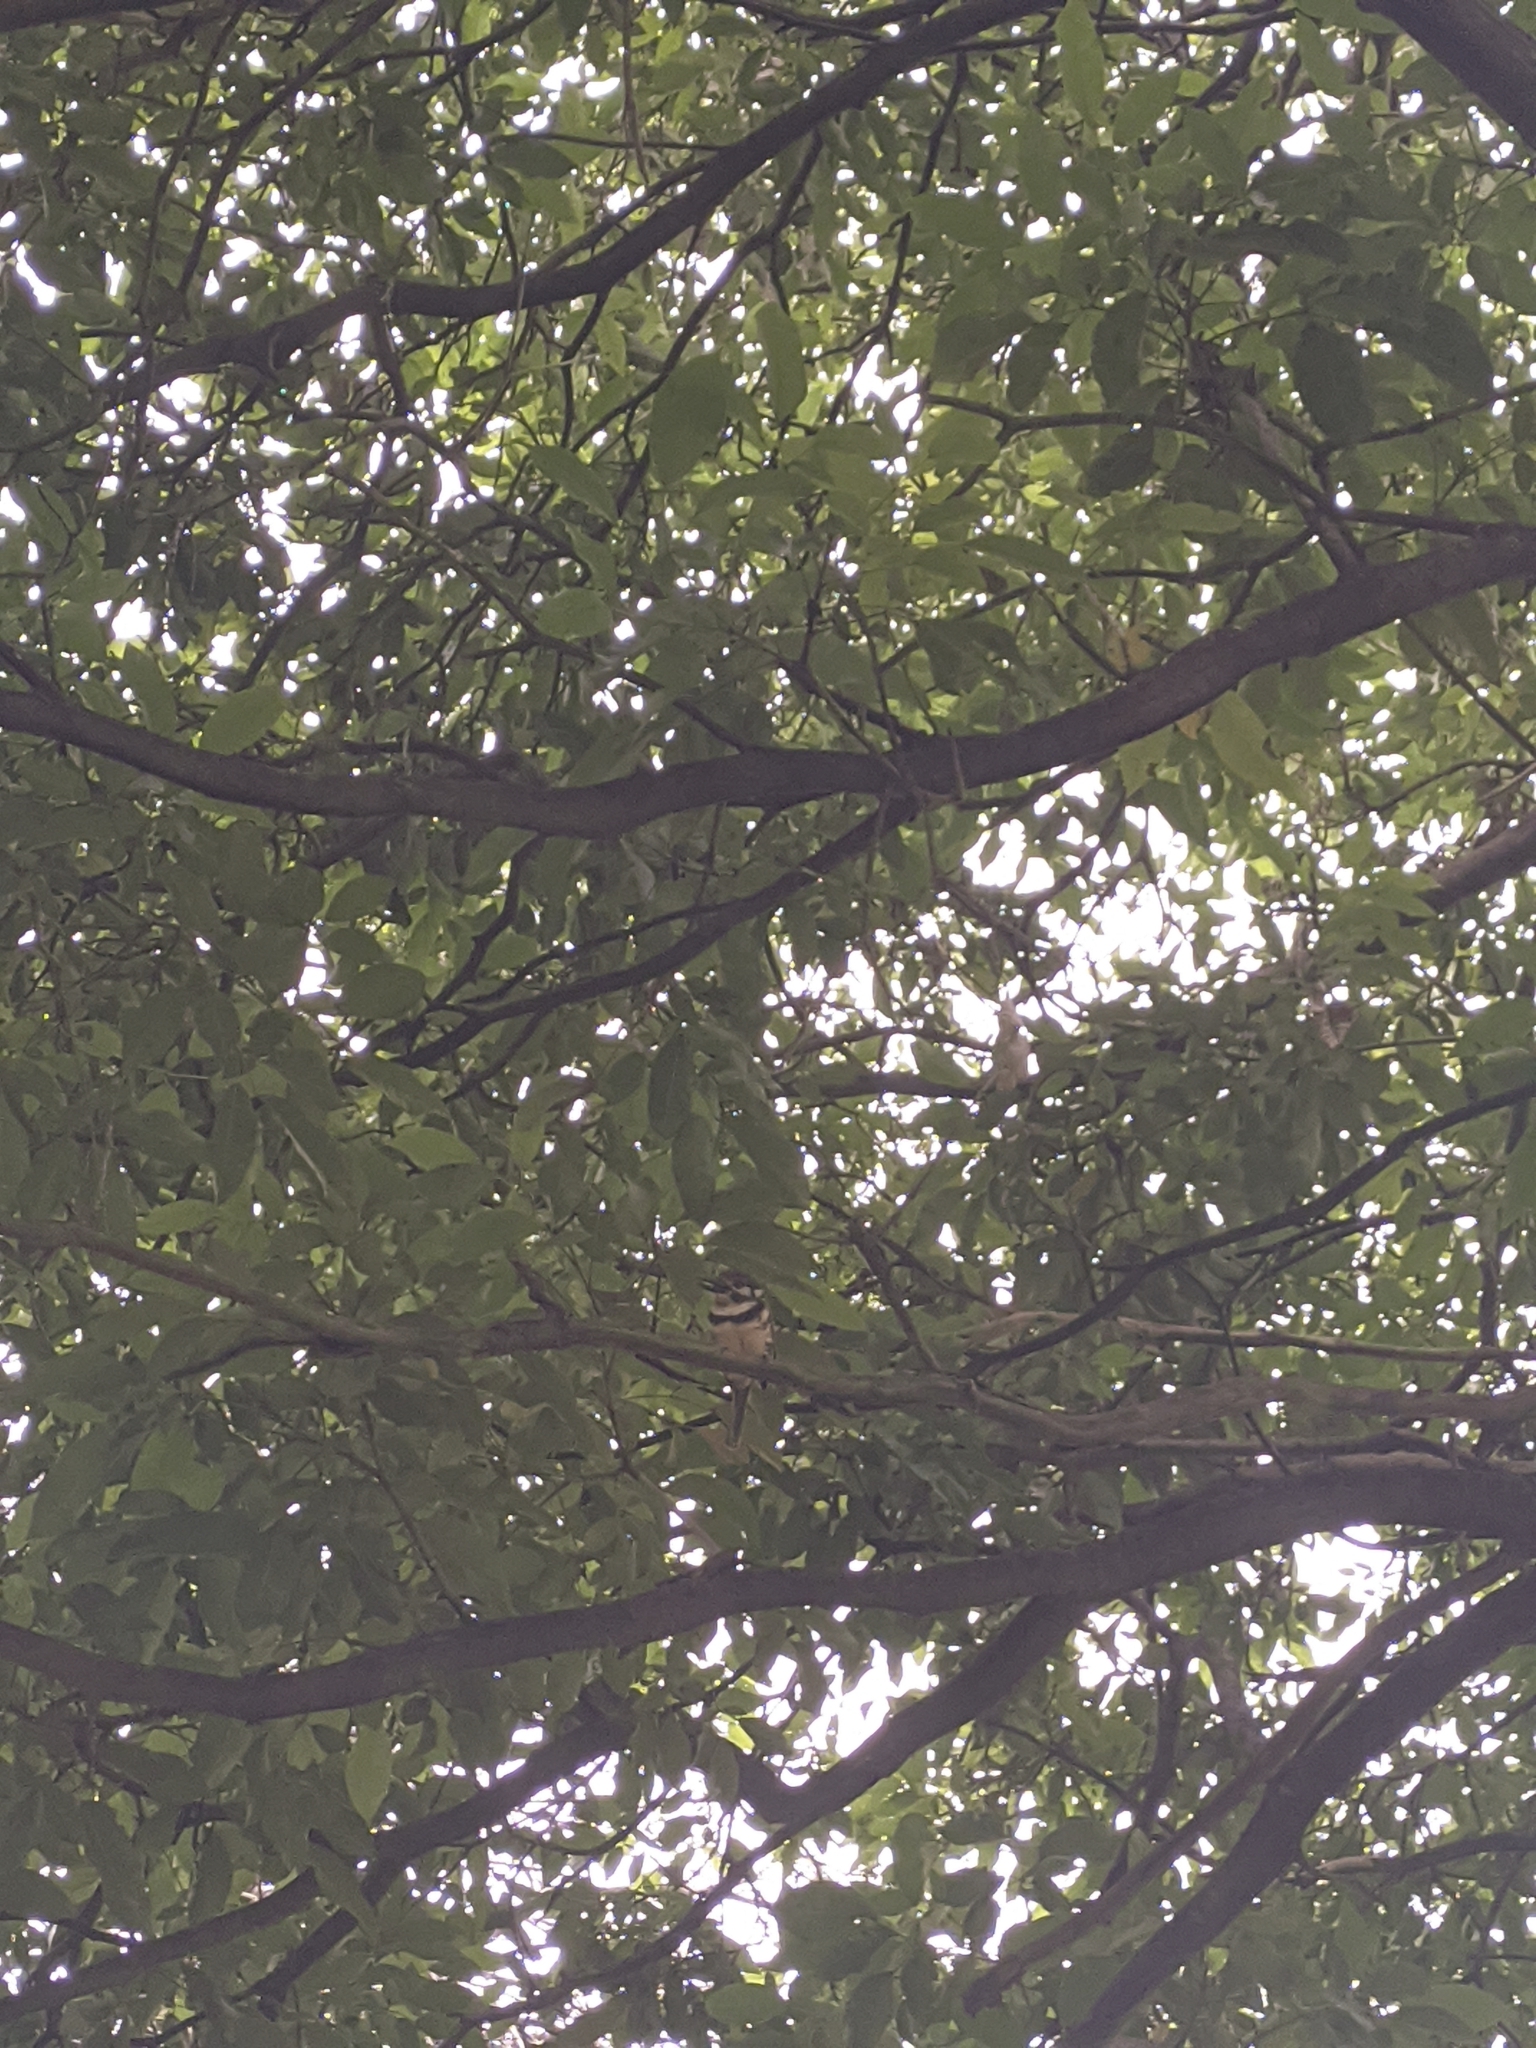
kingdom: Animalia
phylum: Chordata
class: Aves
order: Piciformes
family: Bucconidae
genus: Hypnelus
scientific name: Hypnelus ruficollis
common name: Russet-throated puffbird
